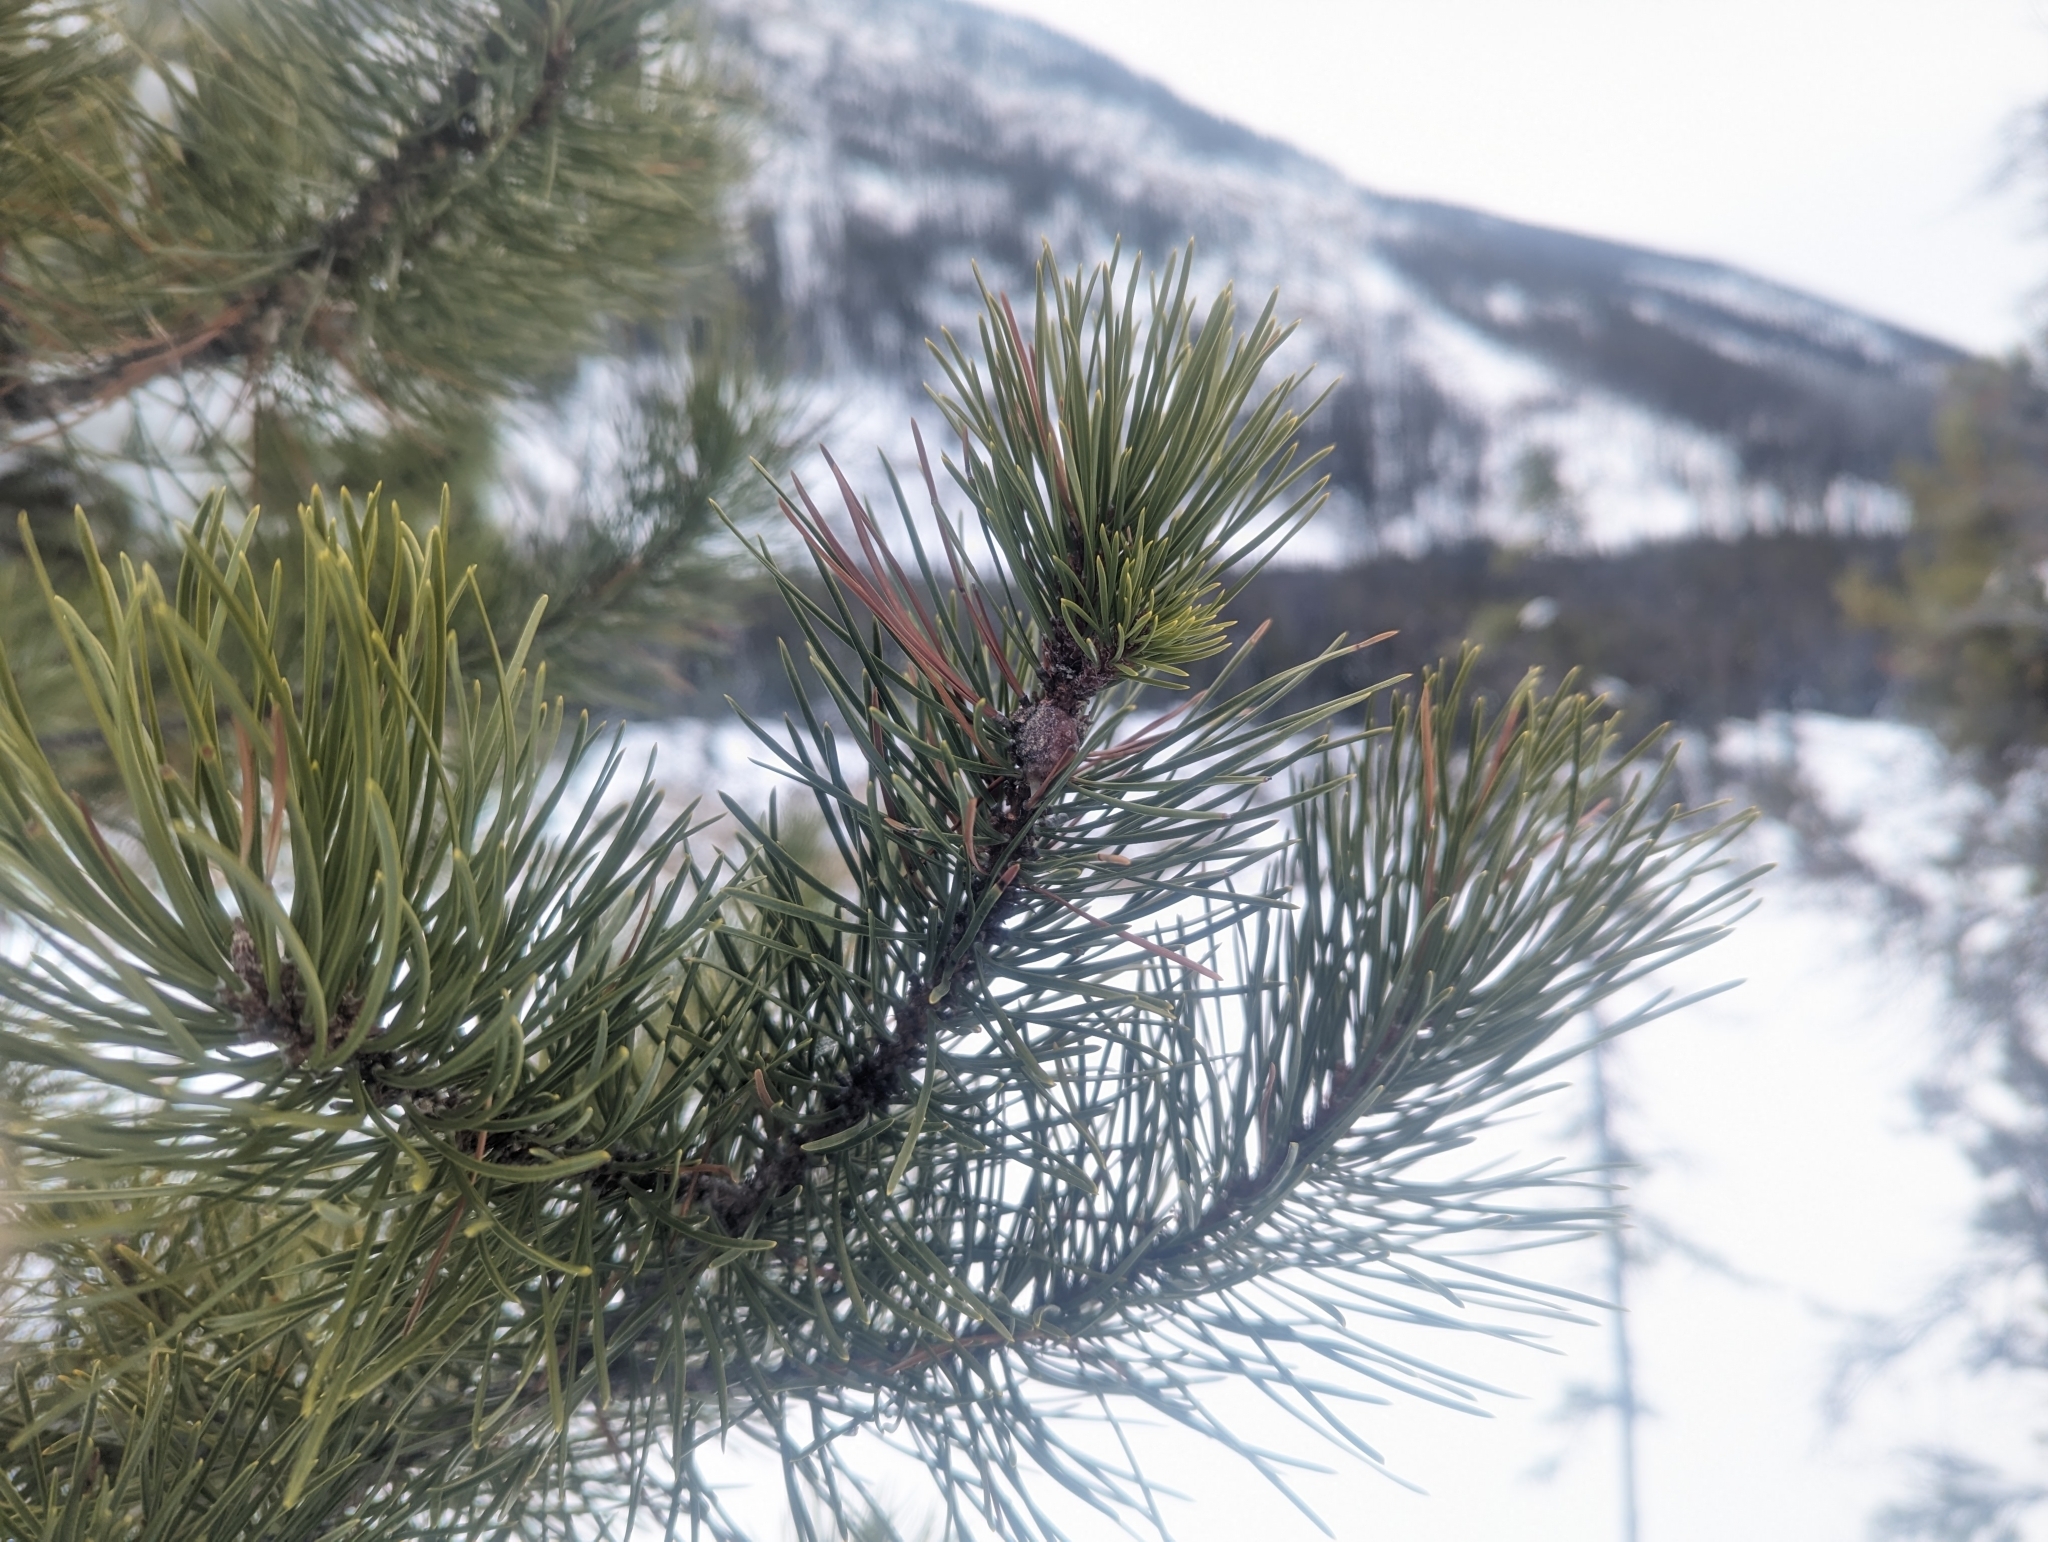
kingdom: Plantae
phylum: Tracheophyta
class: Pinopsida
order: Pinales
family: Pinaceae
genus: Pinus
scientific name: Pinus contorta
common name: Lodgepole pine
